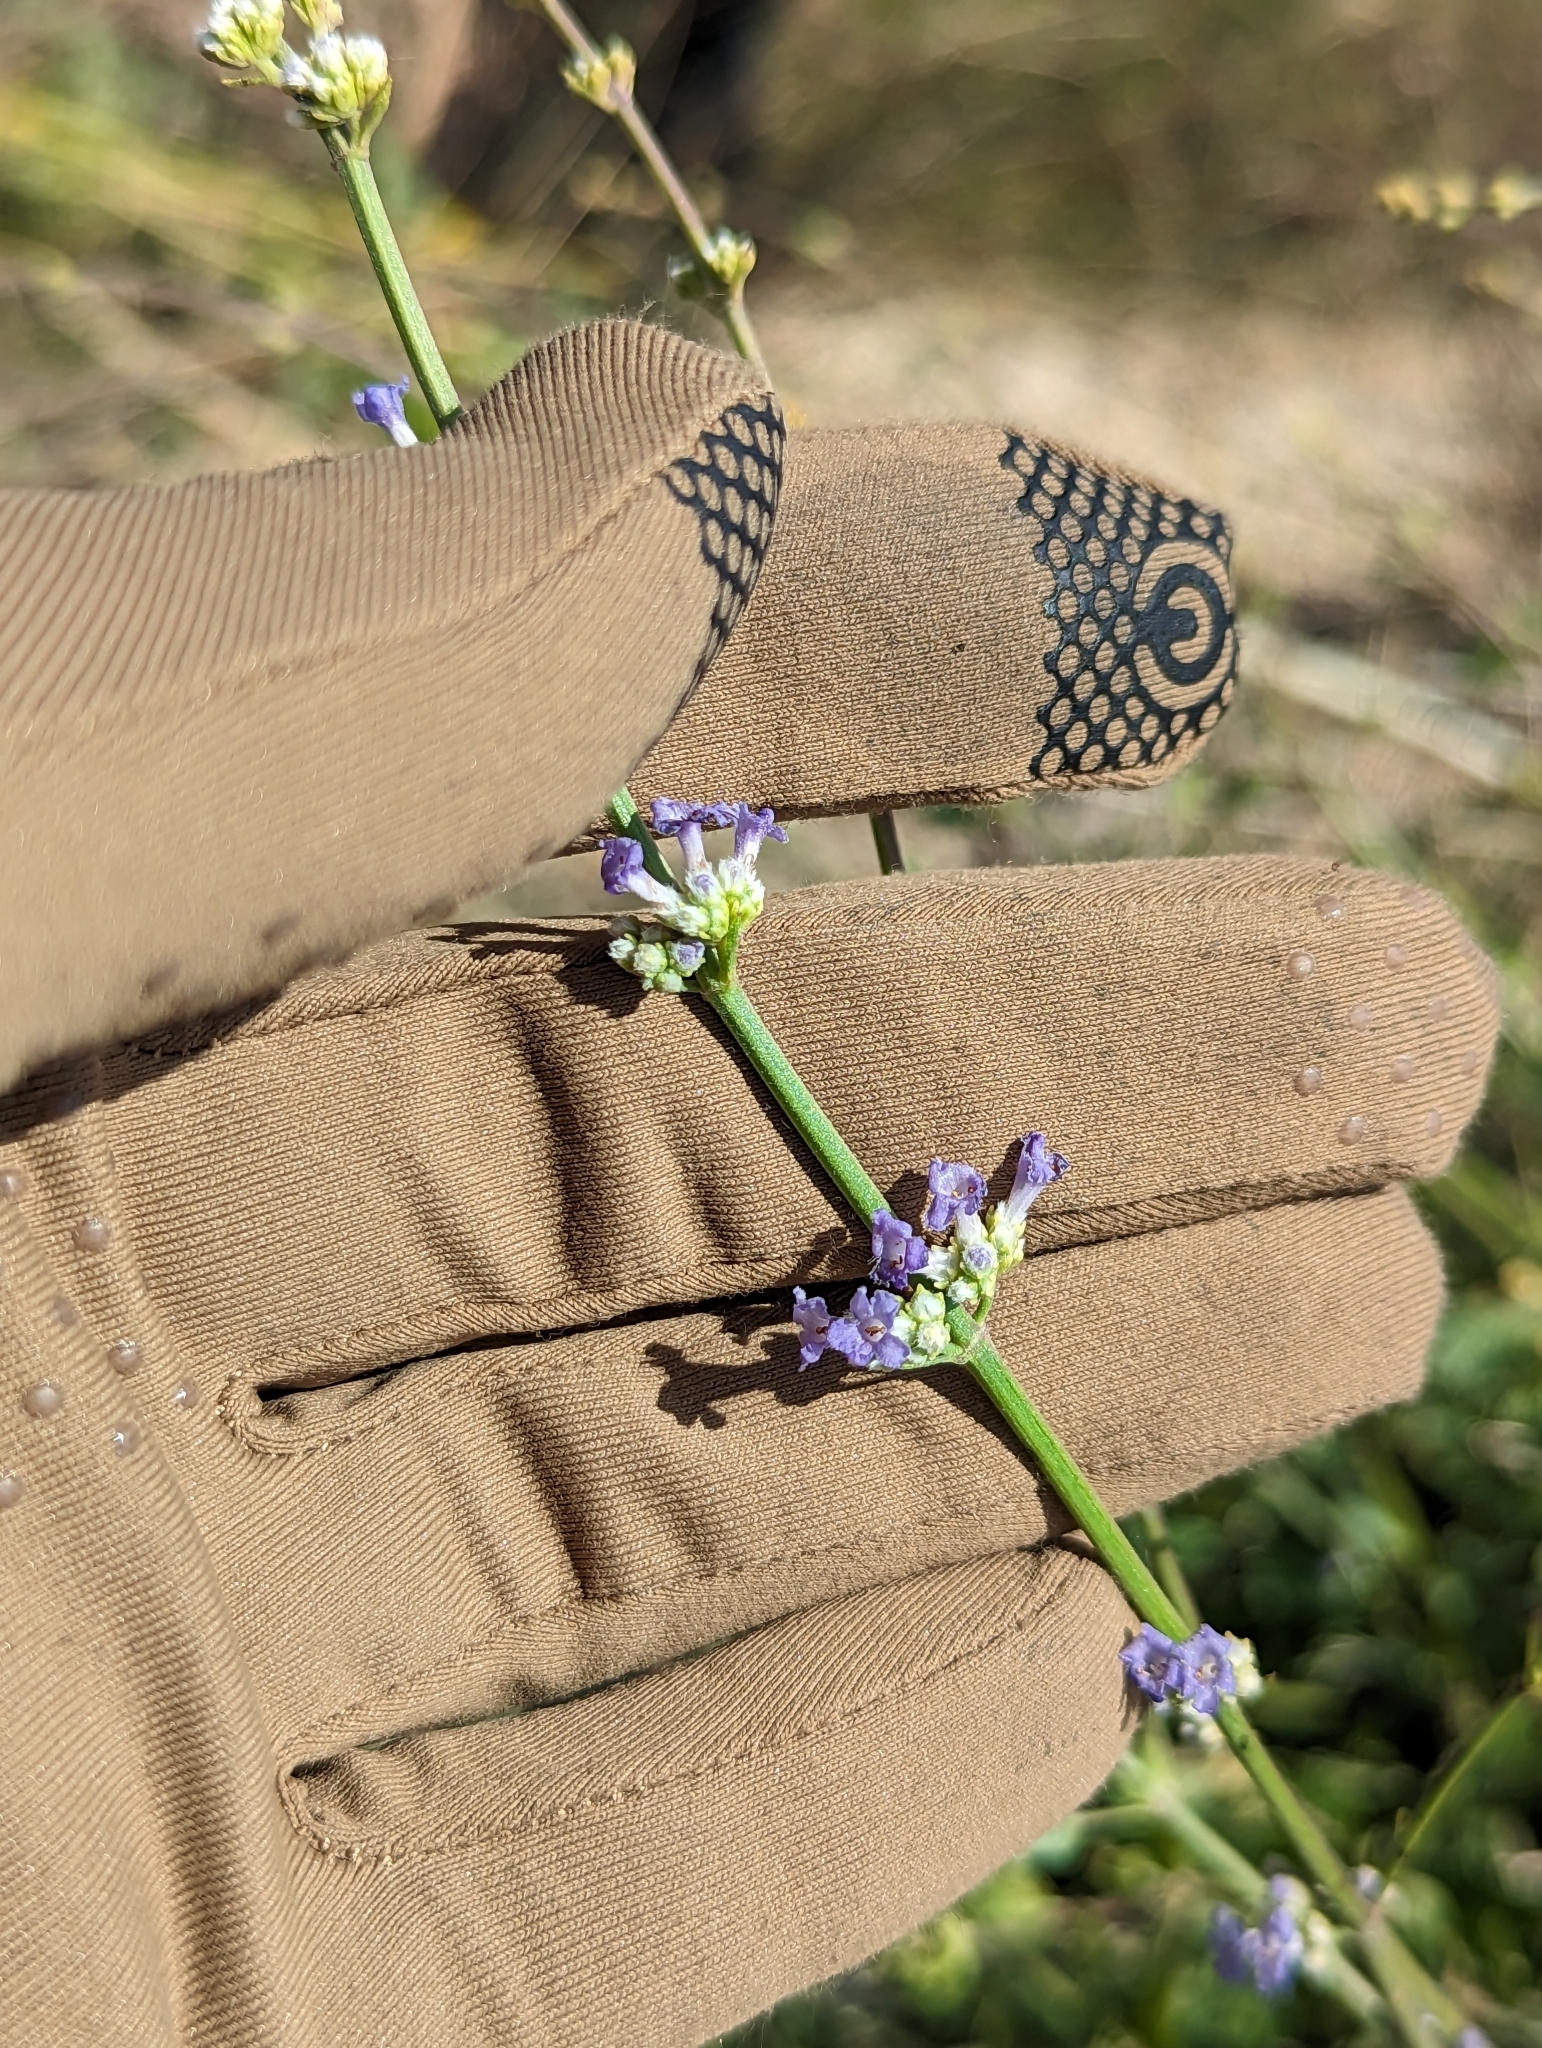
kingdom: Plantae
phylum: Tracheophyta
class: Magnoliopsida
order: Lamiales
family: Lamiaceae
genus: Mesosphaerum
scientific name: Mesosphaerum collinum
